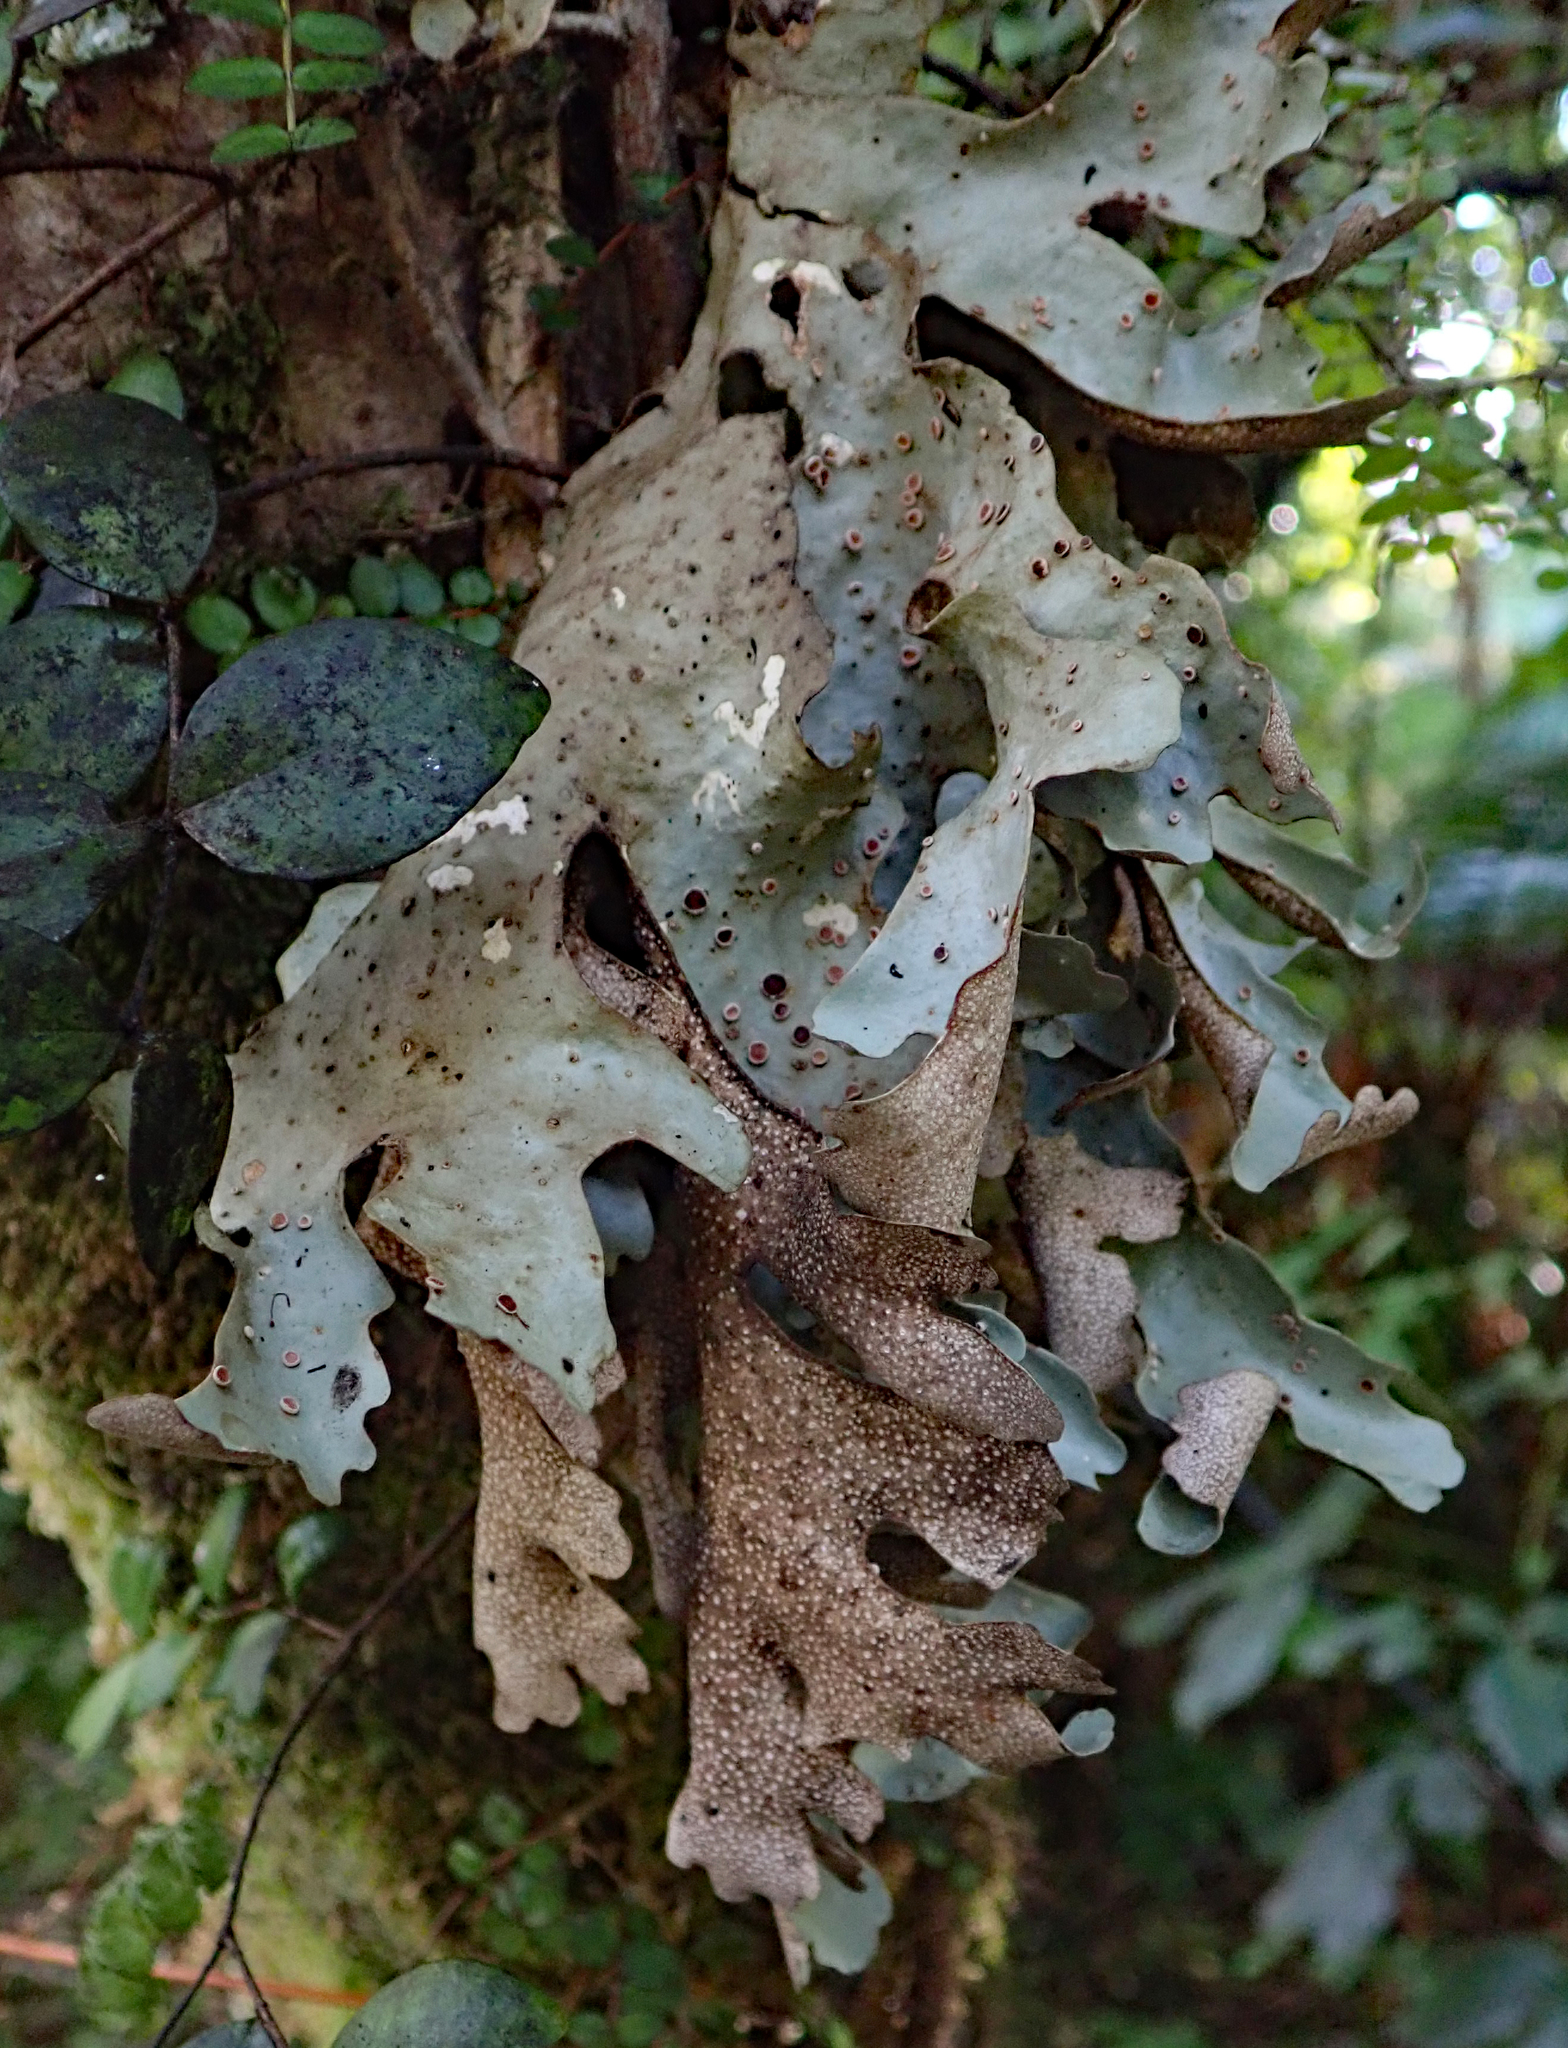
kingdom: Fungi
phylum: Ascomycota
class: Lecanoromycetes
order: Peltigerales
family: Lobariaceae
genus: Sticta
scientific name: Sticta
